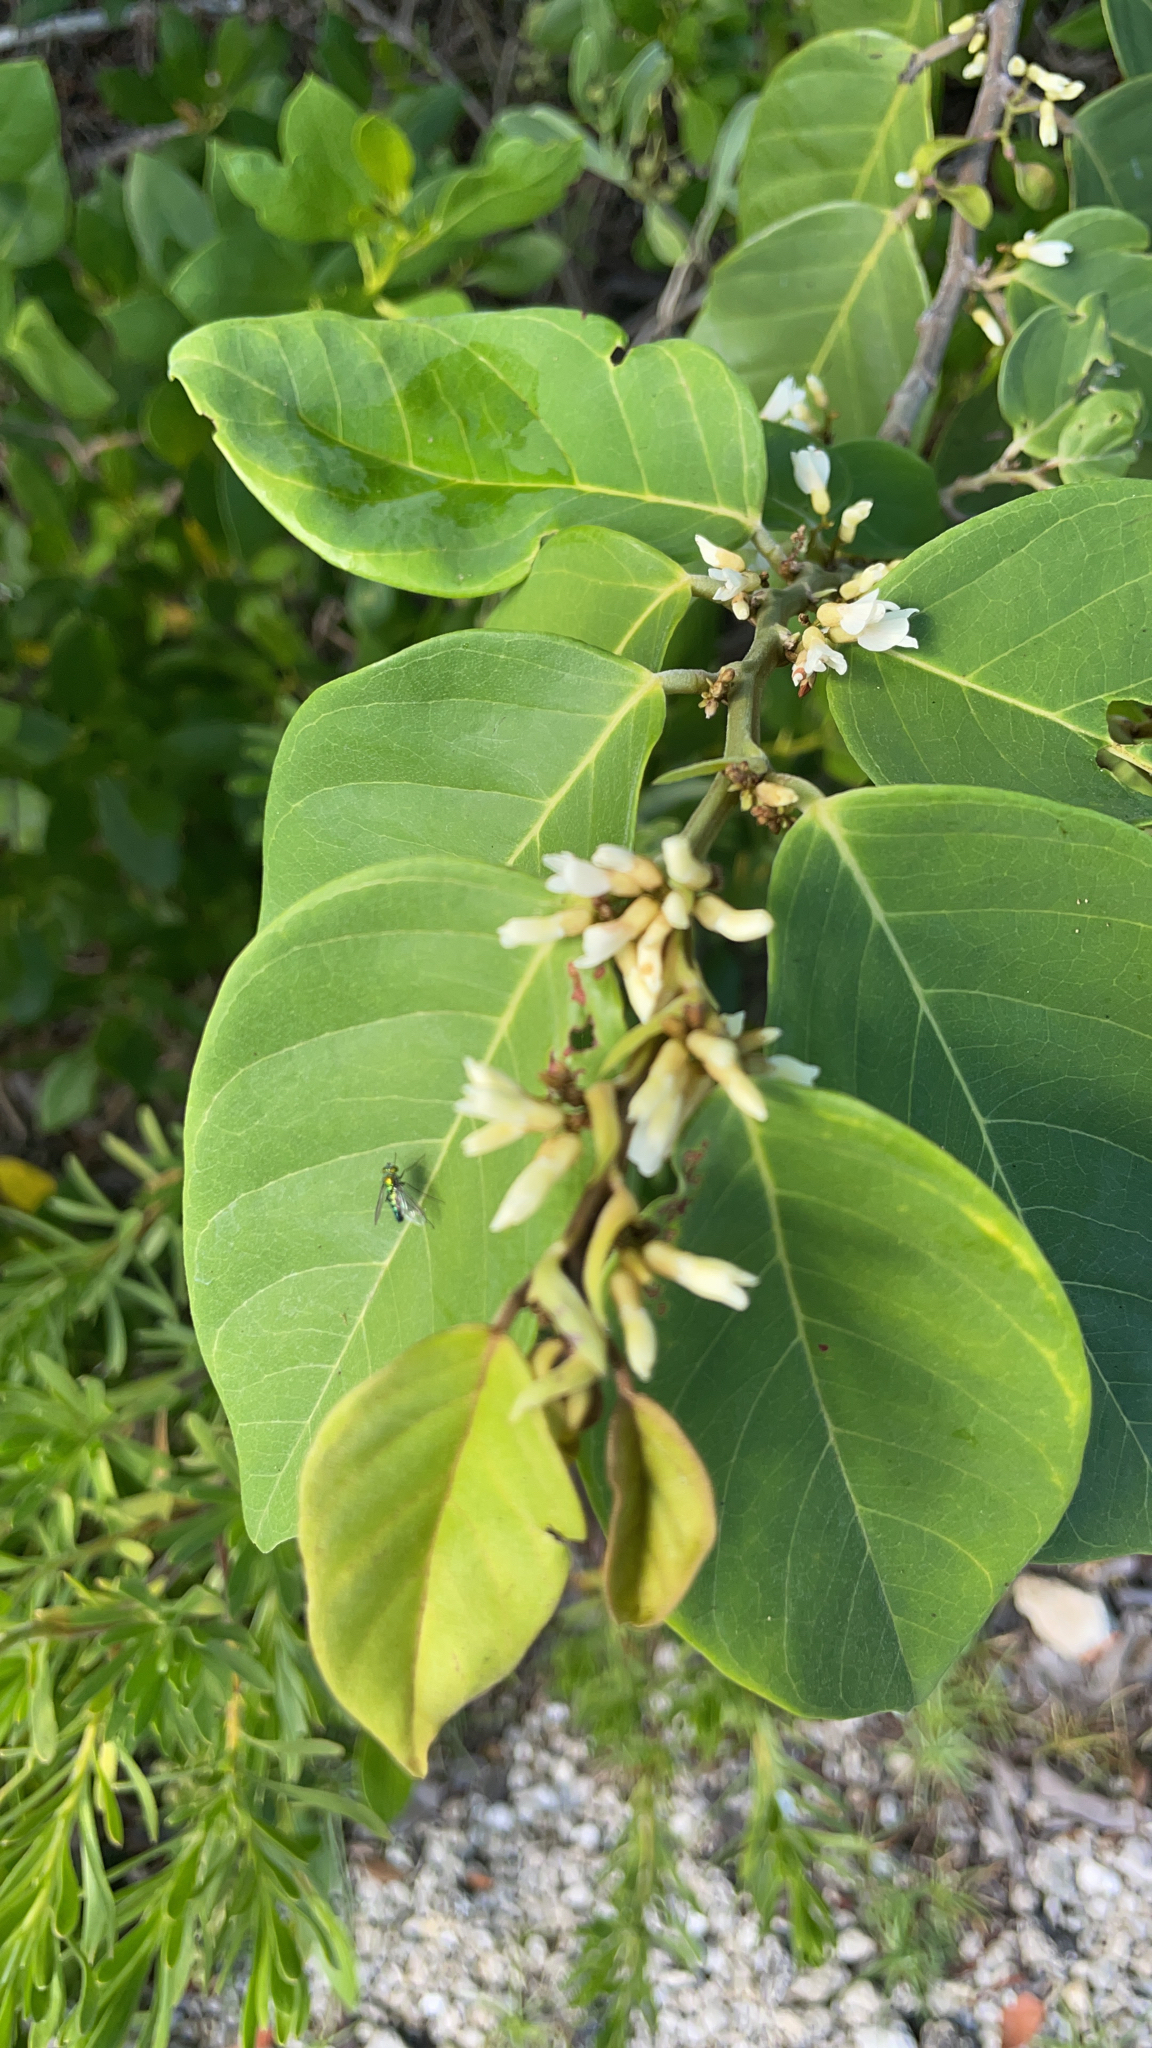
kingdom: Plantae
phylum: Tracheophyta
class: Magnoliopsida
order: Fabales
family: Fabaceae
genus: Dalbergia
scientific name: Dalbergia ecastaphyllum
